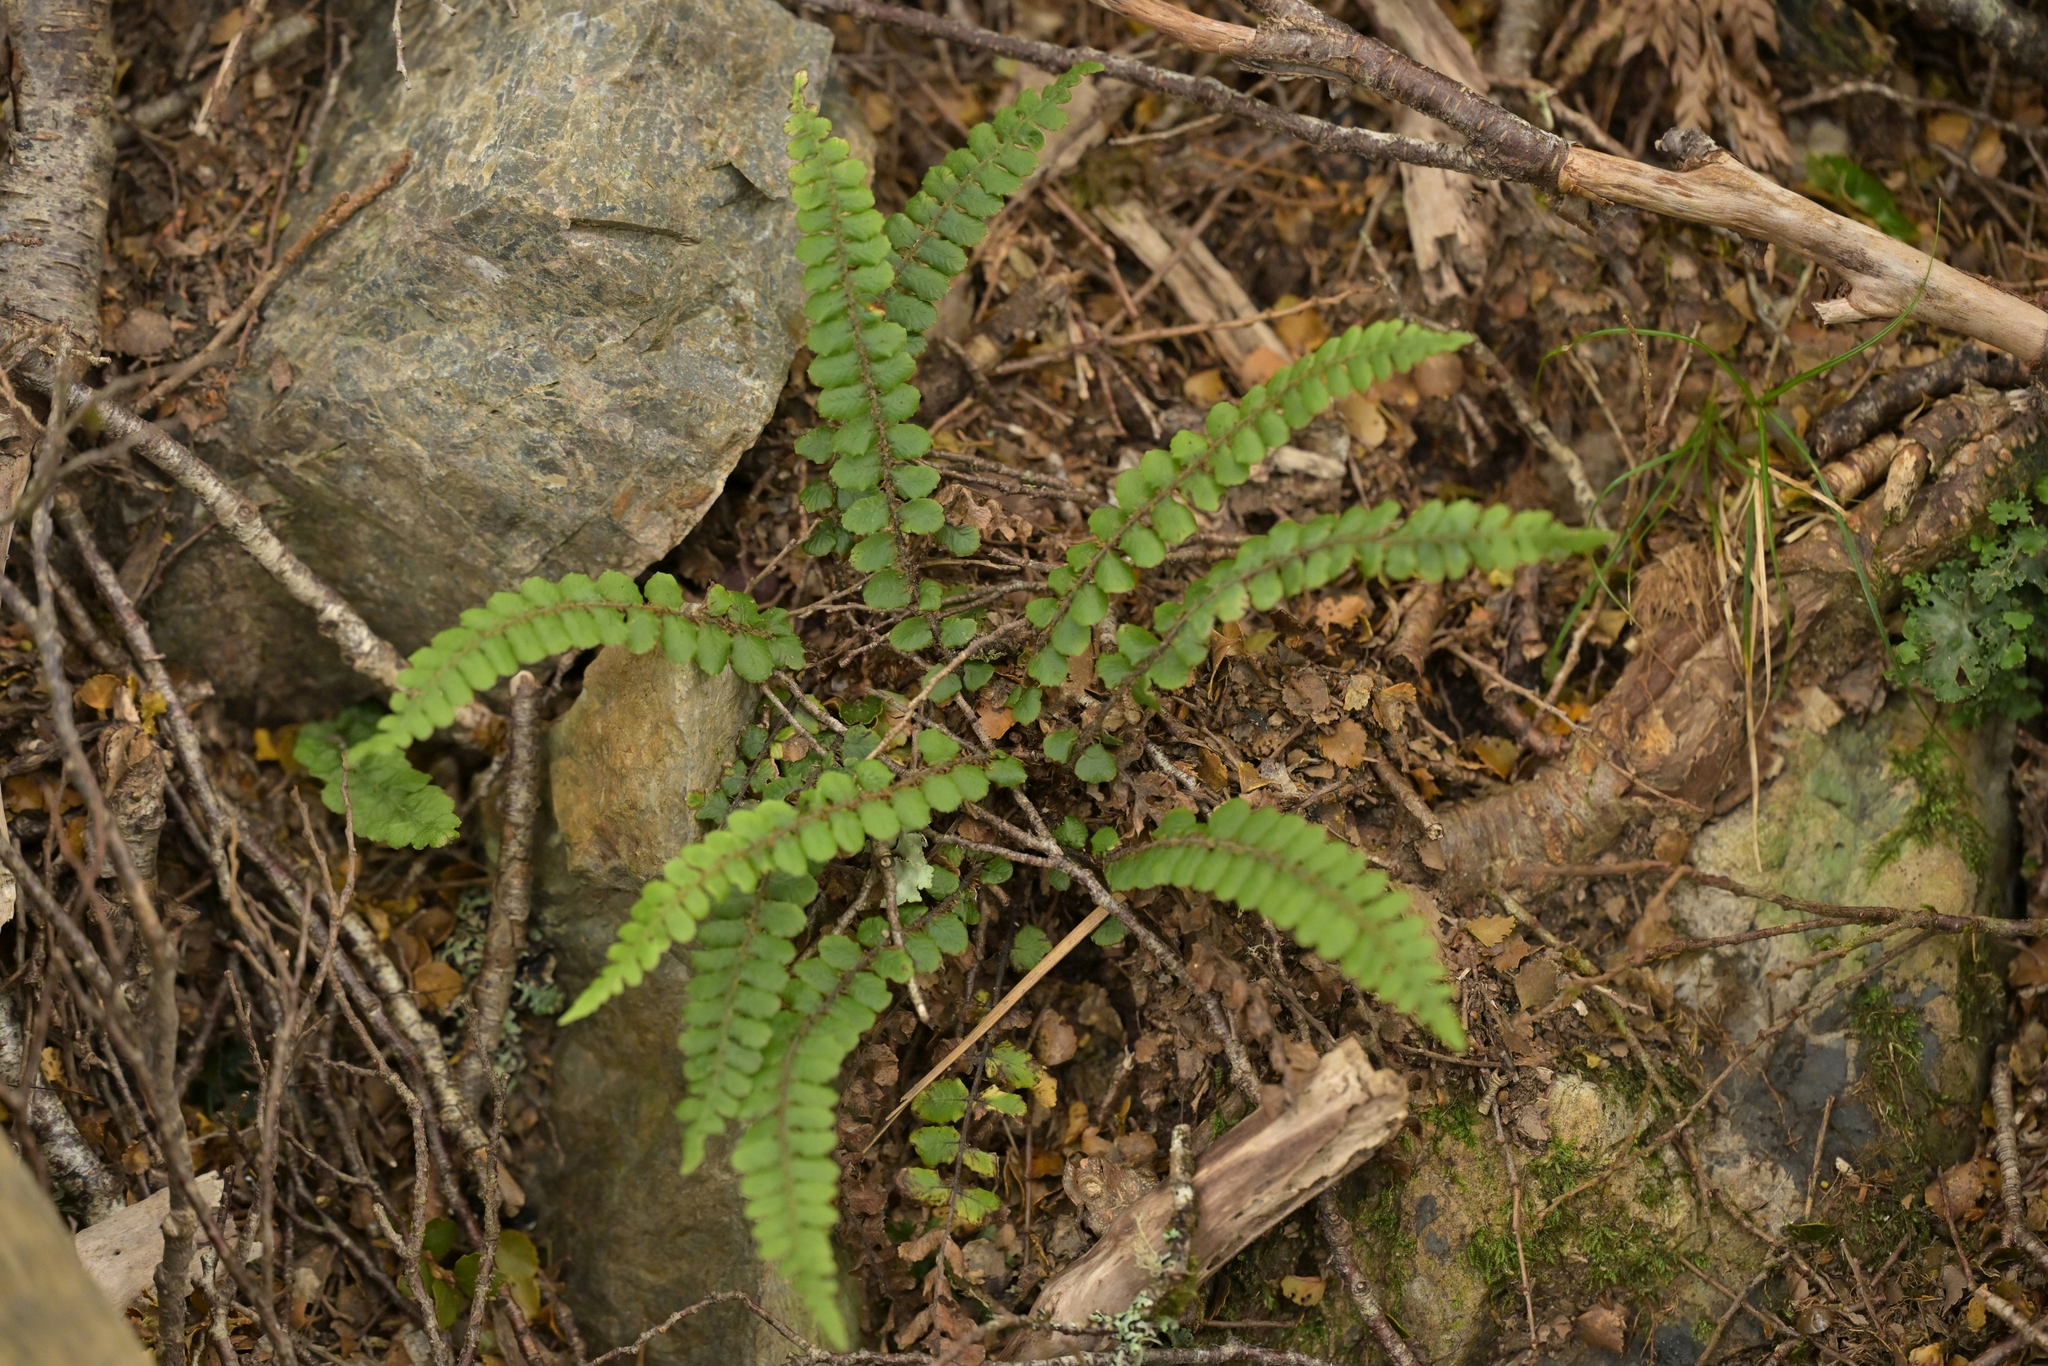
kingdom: Plantae
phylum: Tracheophyta
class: Polypodiopsida
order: Polypodiales
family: Blechnaceae
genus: Cranfillia
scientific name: Cranfillia fluviatilis
